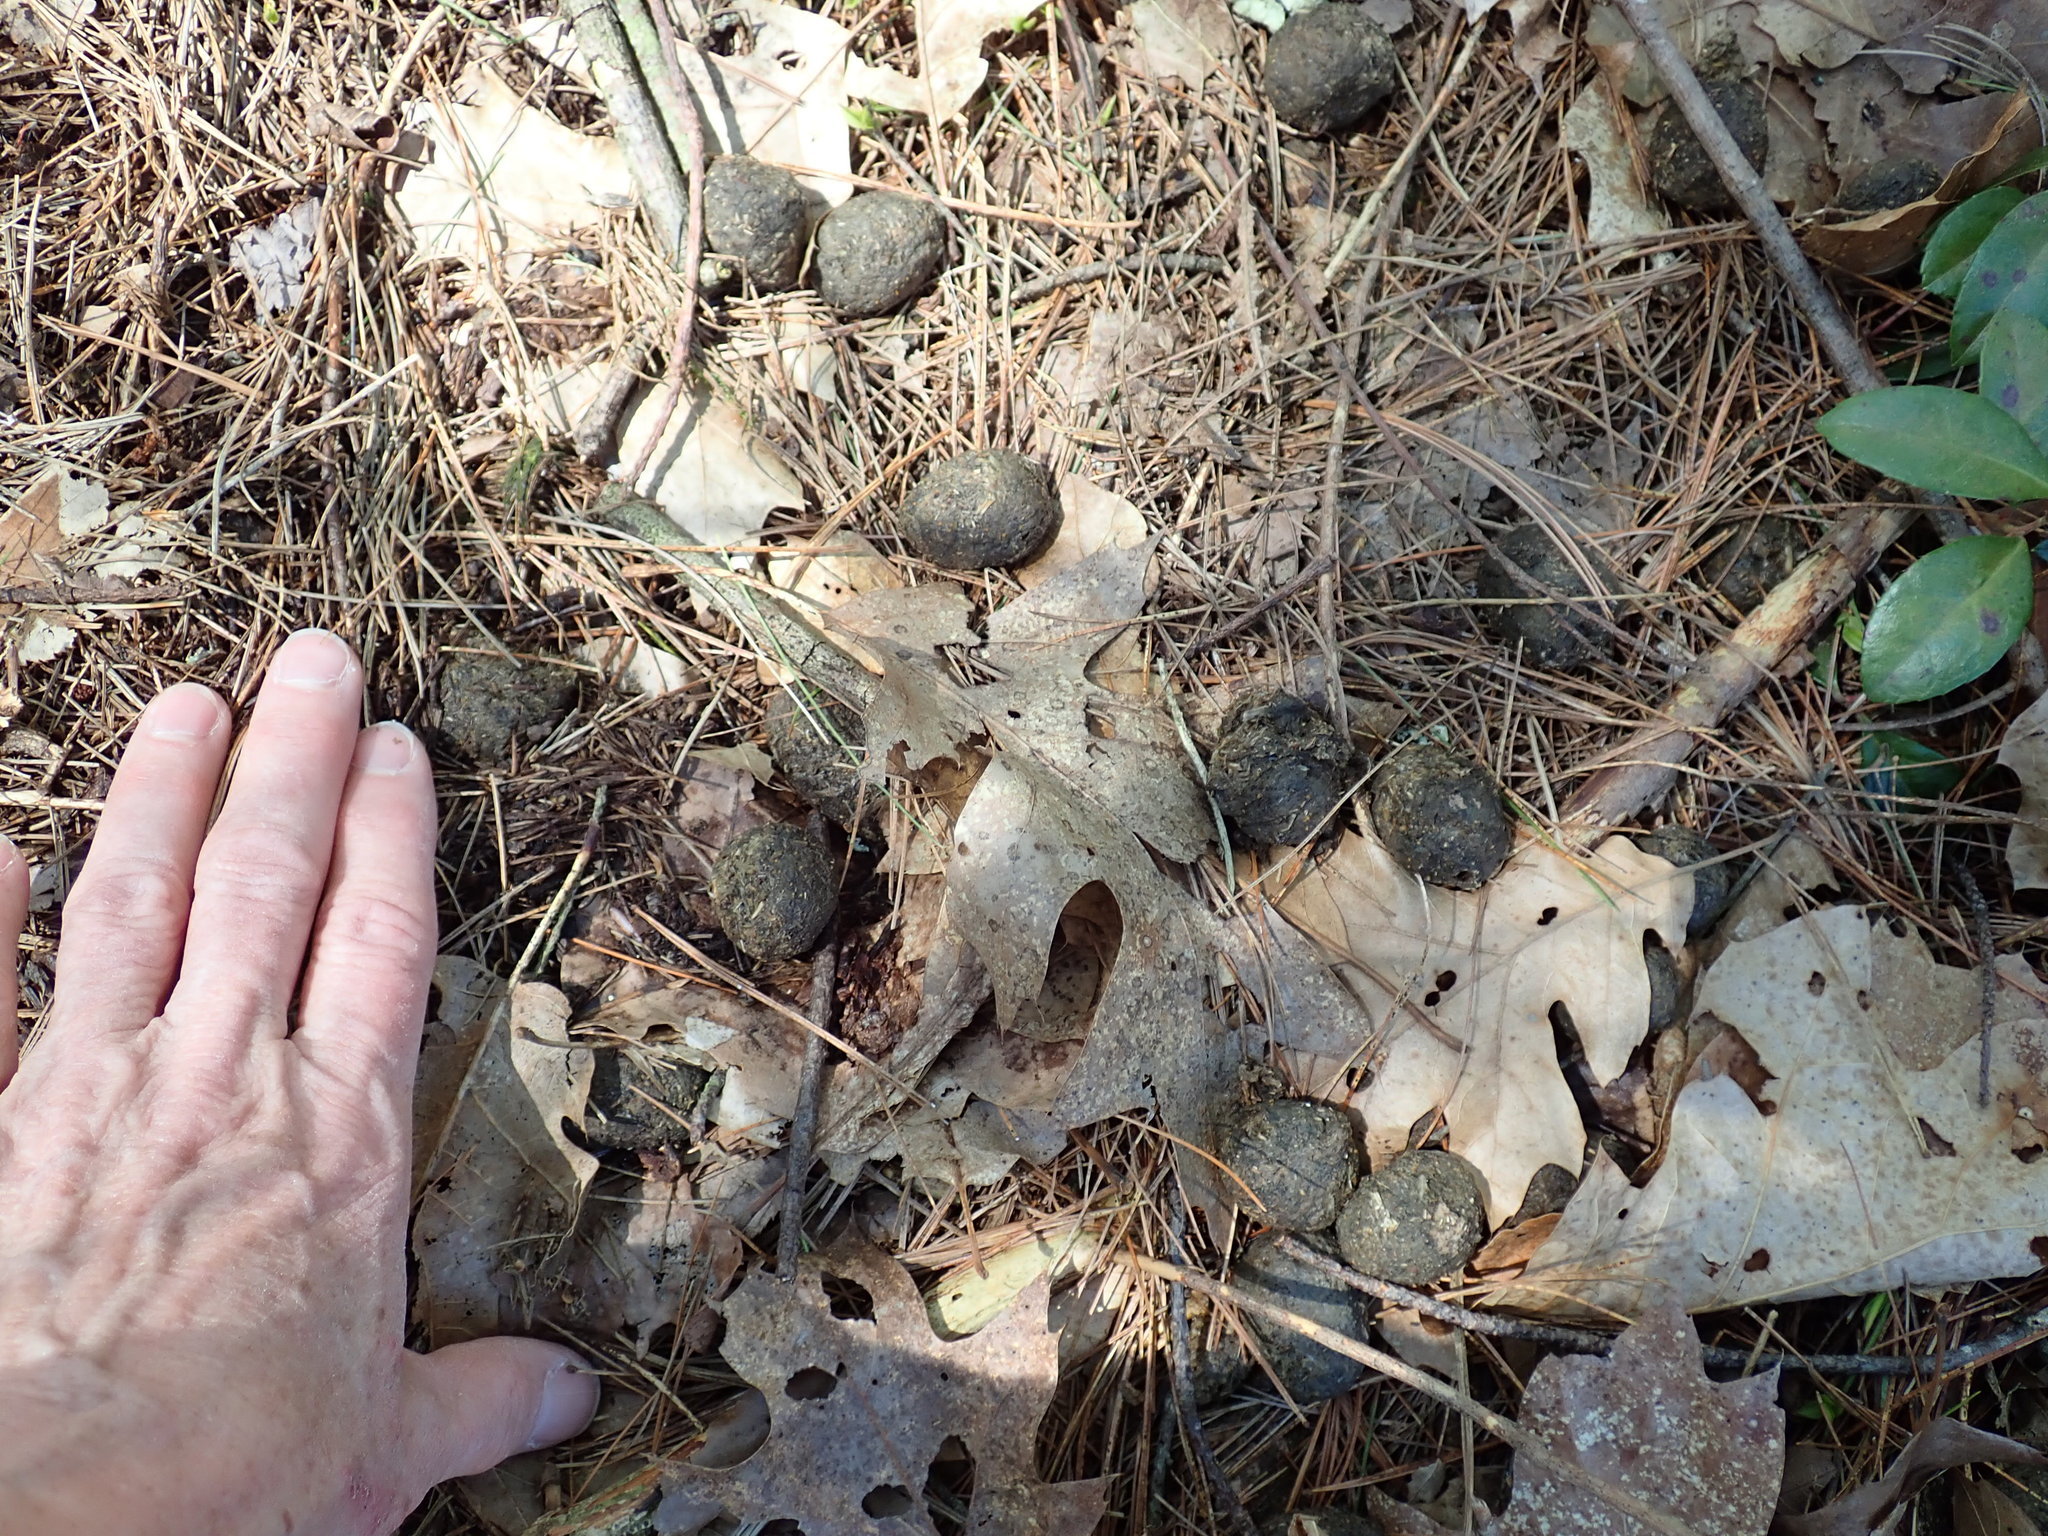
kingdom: Animalia
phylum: Chordata
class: Mammalia
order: Artiodactyla
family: Cervidae
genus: Alces
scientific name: Alces alces
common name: Moose
